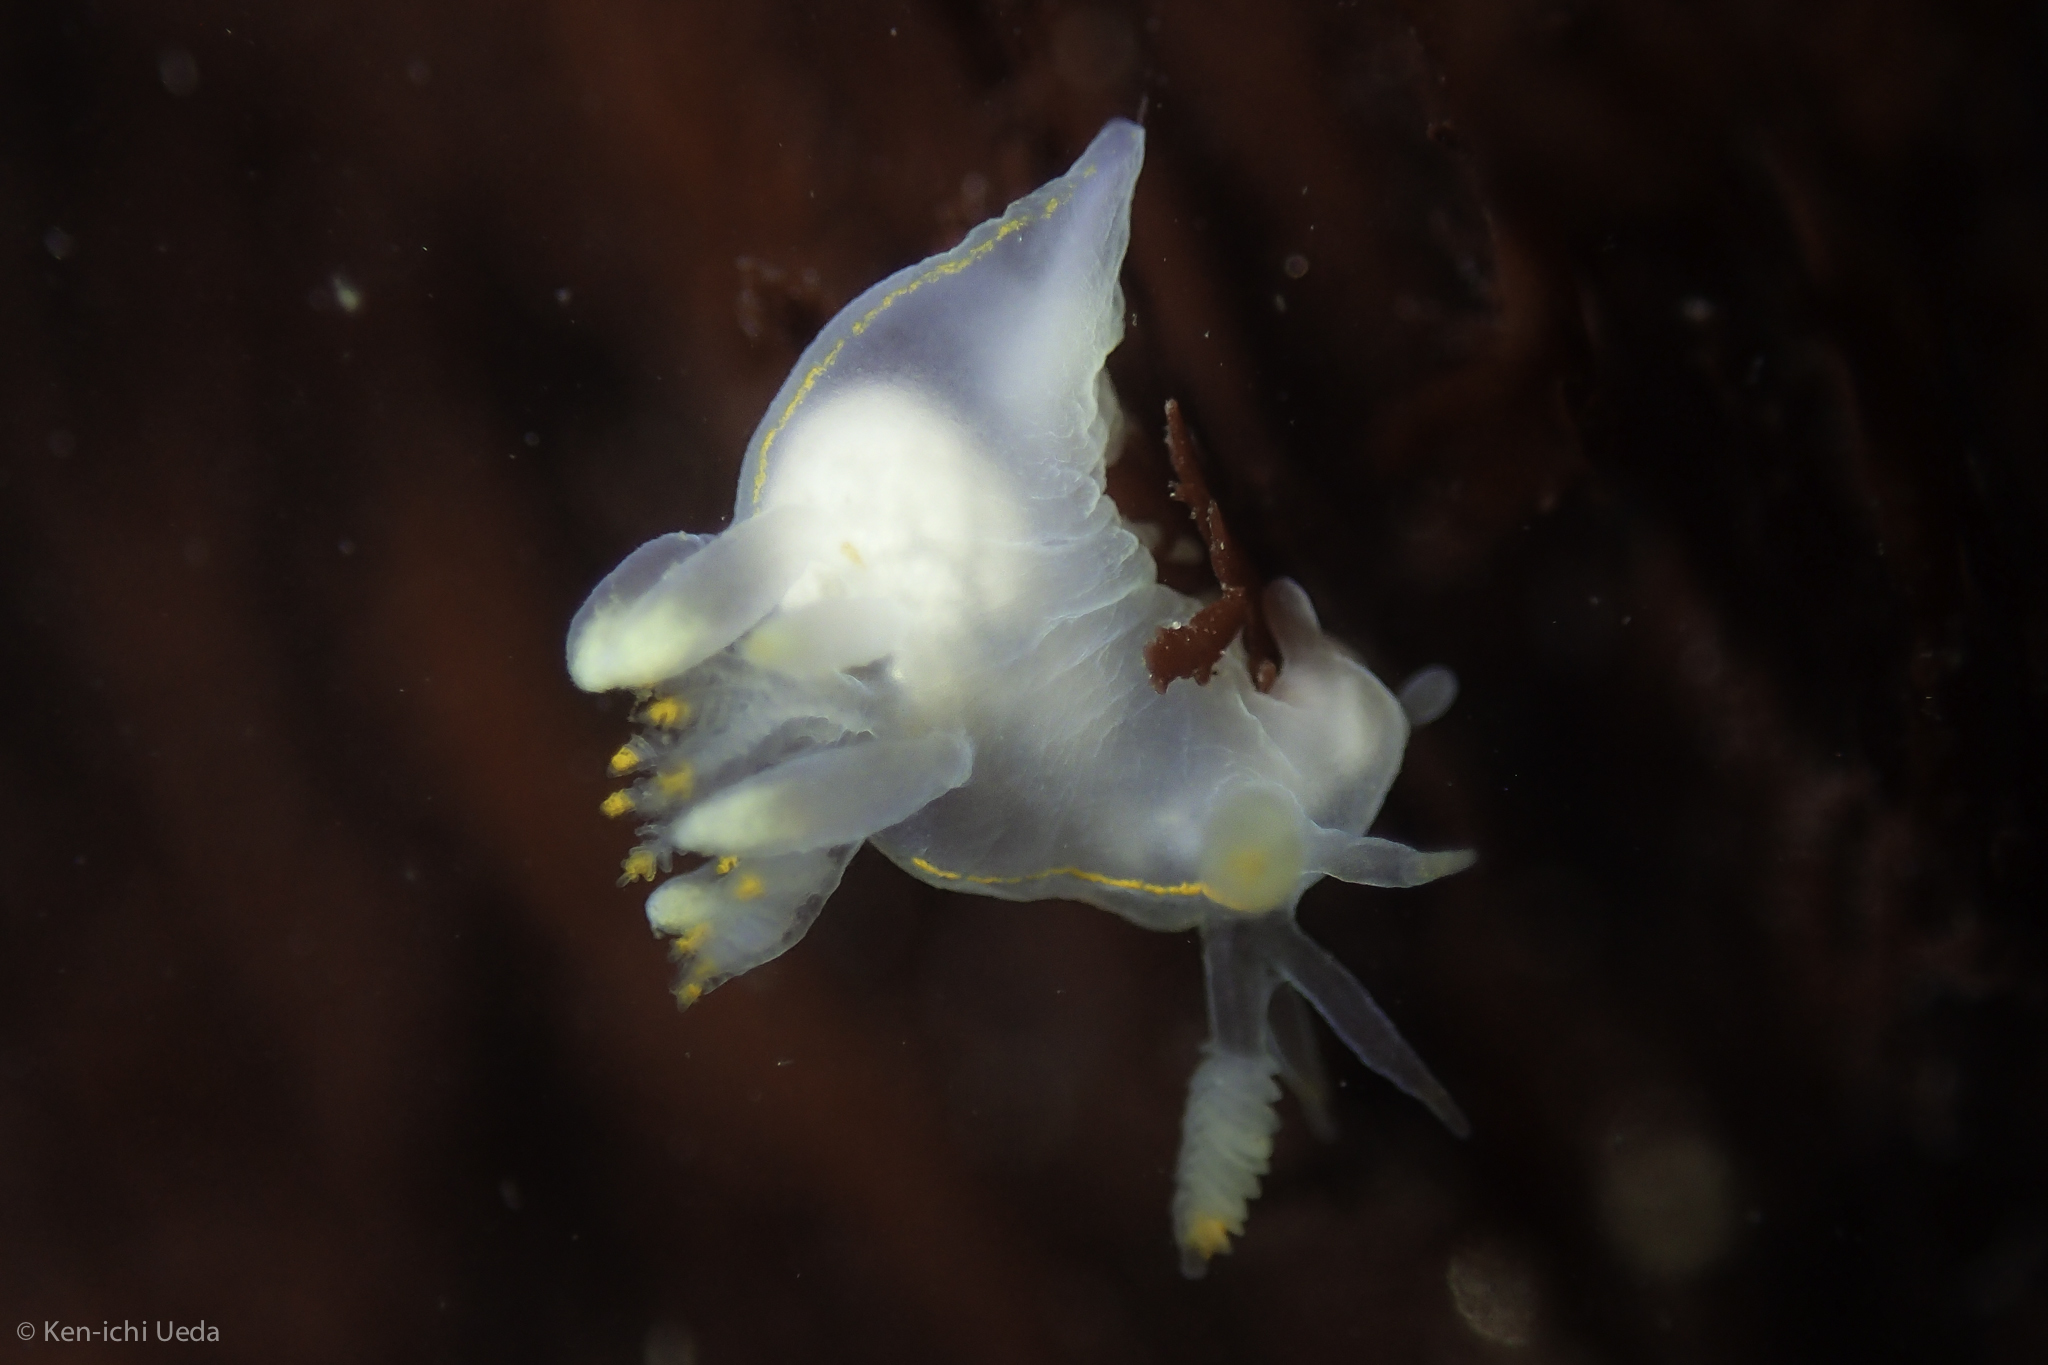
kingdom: Animalia
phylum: Mollusca
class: Gastropoda
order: Nudibranchia
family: Goniodorididae
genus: Ancula
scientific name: Ancula pacifica
